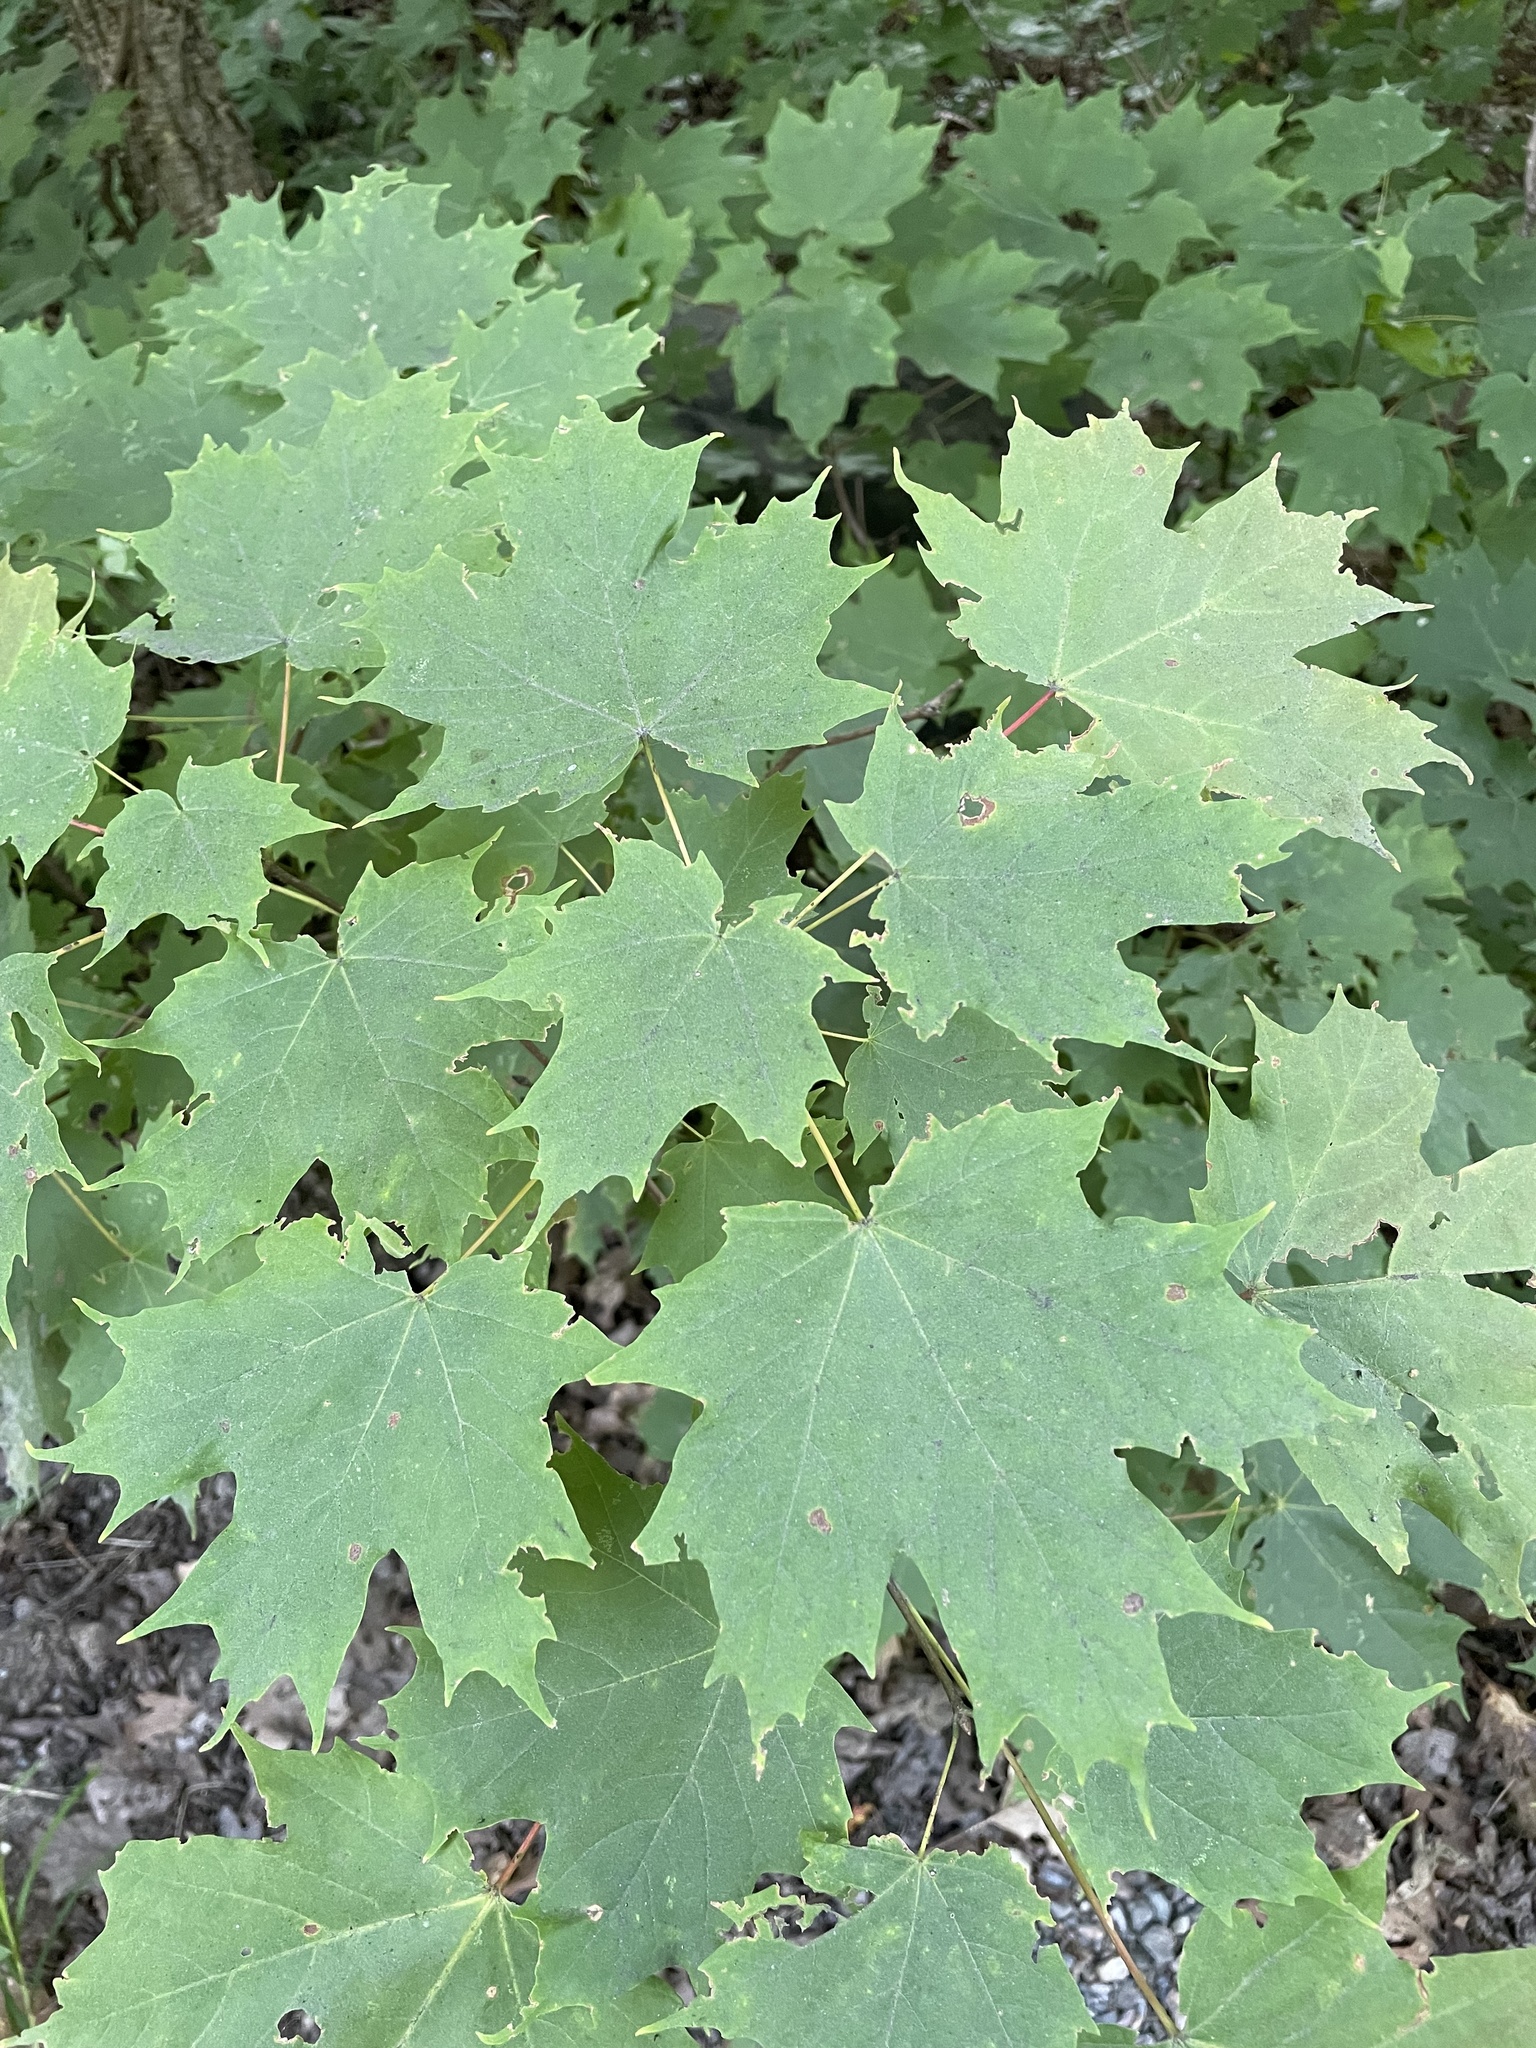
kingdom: Plantae
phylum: Tracheophyta
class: Magnoliopsida
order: Sapindales
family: Sapindaceae
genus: Acer
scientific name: Acer saccharum
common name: Sugar maple
